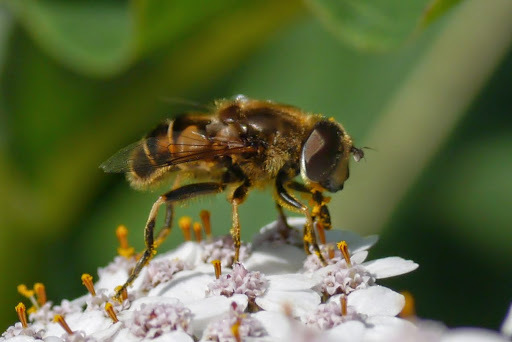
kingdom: Animalia
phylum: Arthropoda
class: Insecta
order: Diptera
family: Syrphidae
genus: Eristalis
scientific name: Eristalis nemorum
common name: Orange-spined drone fly
